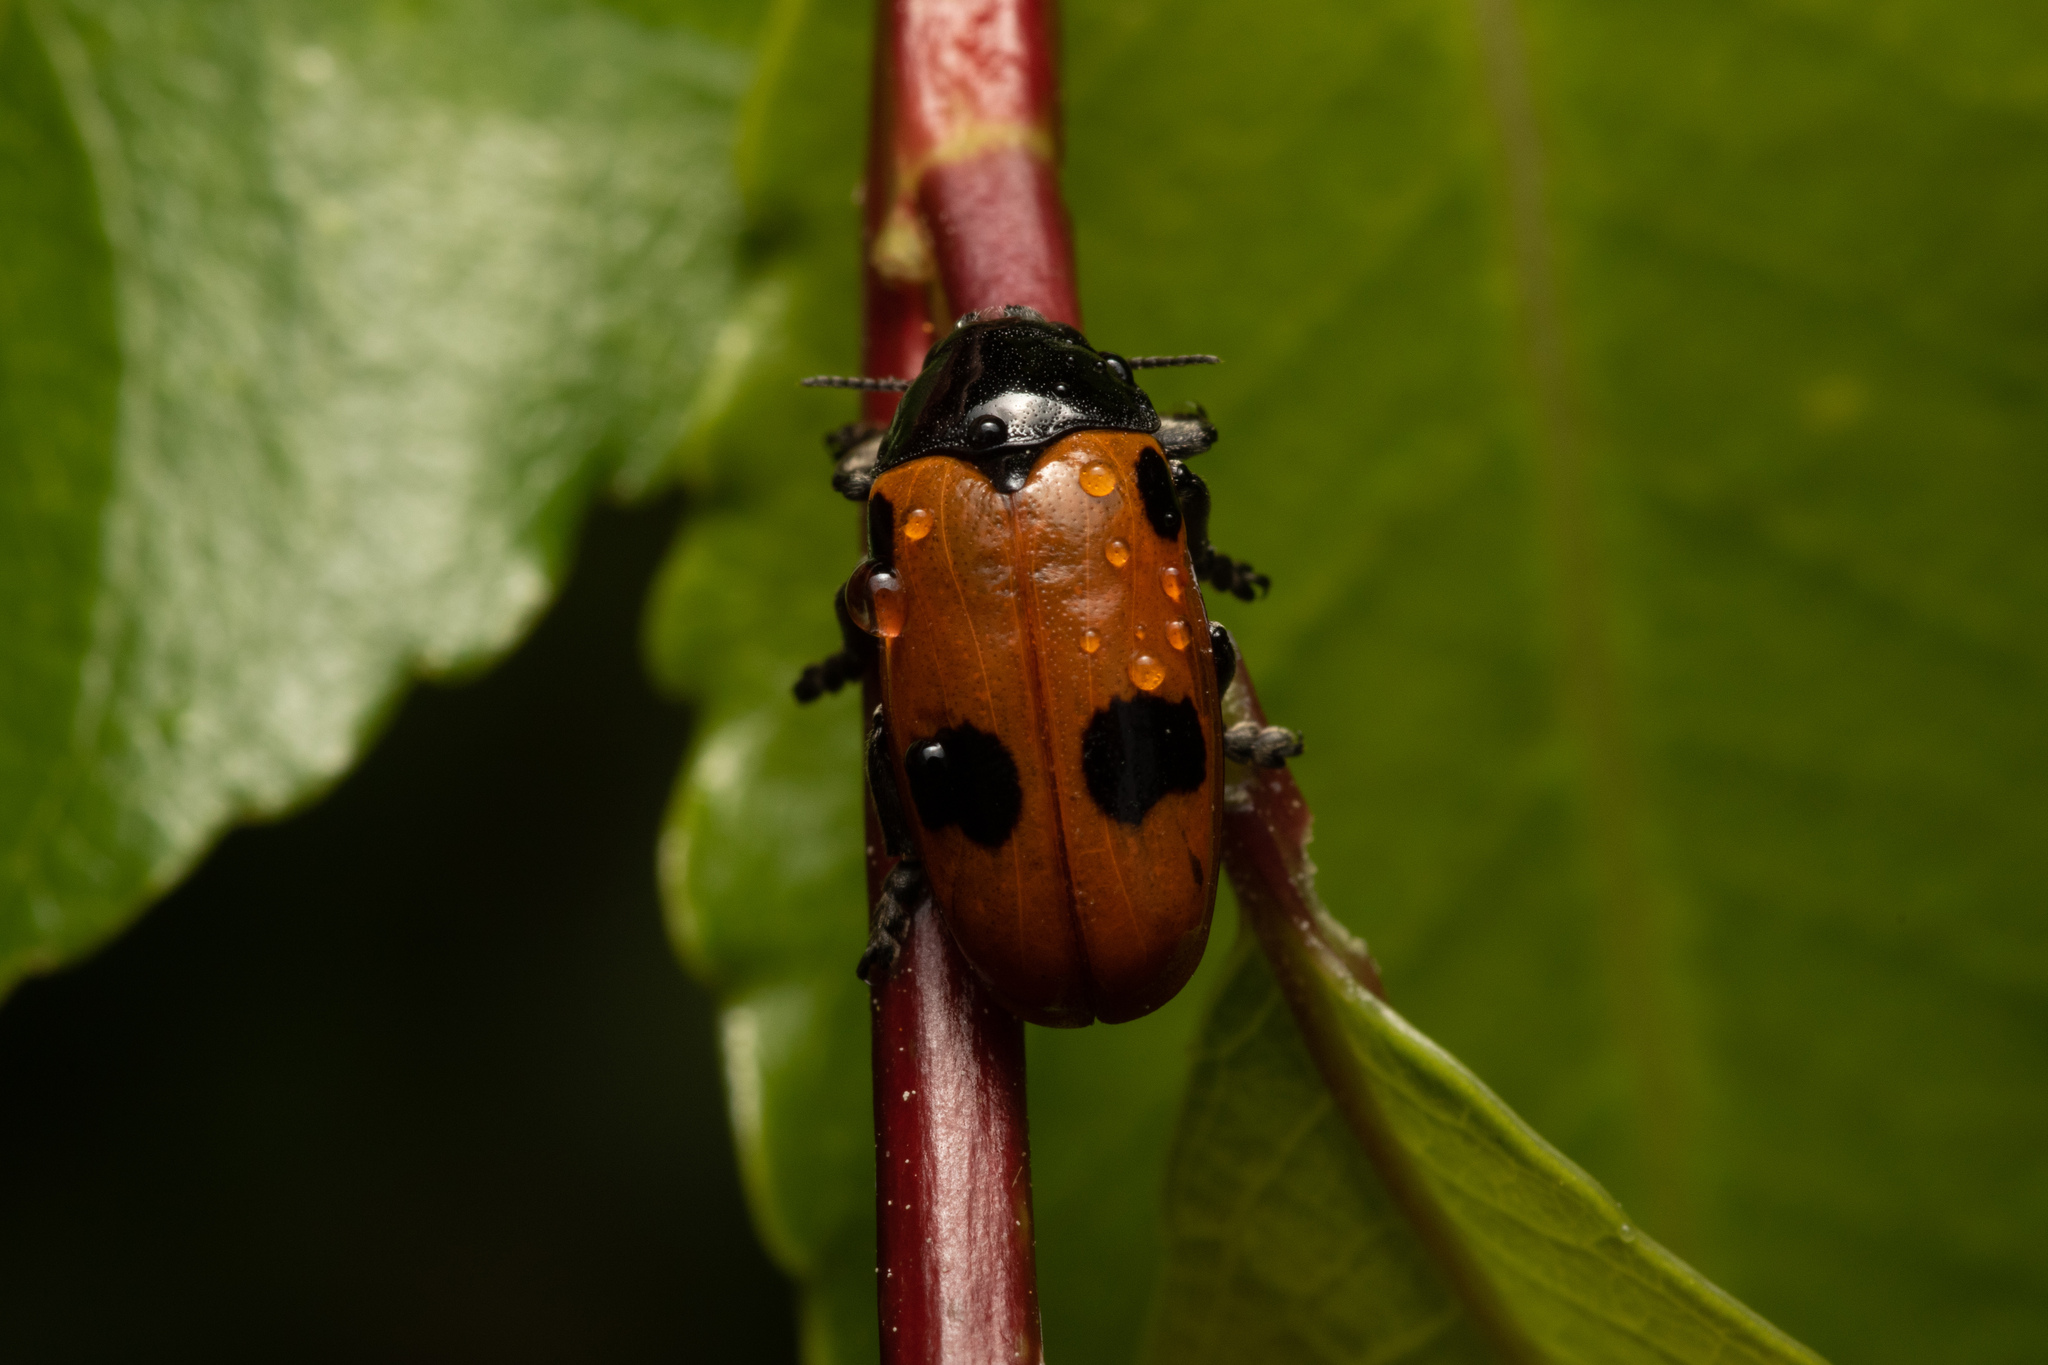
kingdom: Animalia
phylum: Arthropoda
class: Insecta
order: Coleoptera
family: Chrysomelidae
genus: Clytra
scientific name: Clytra quadripunctata
